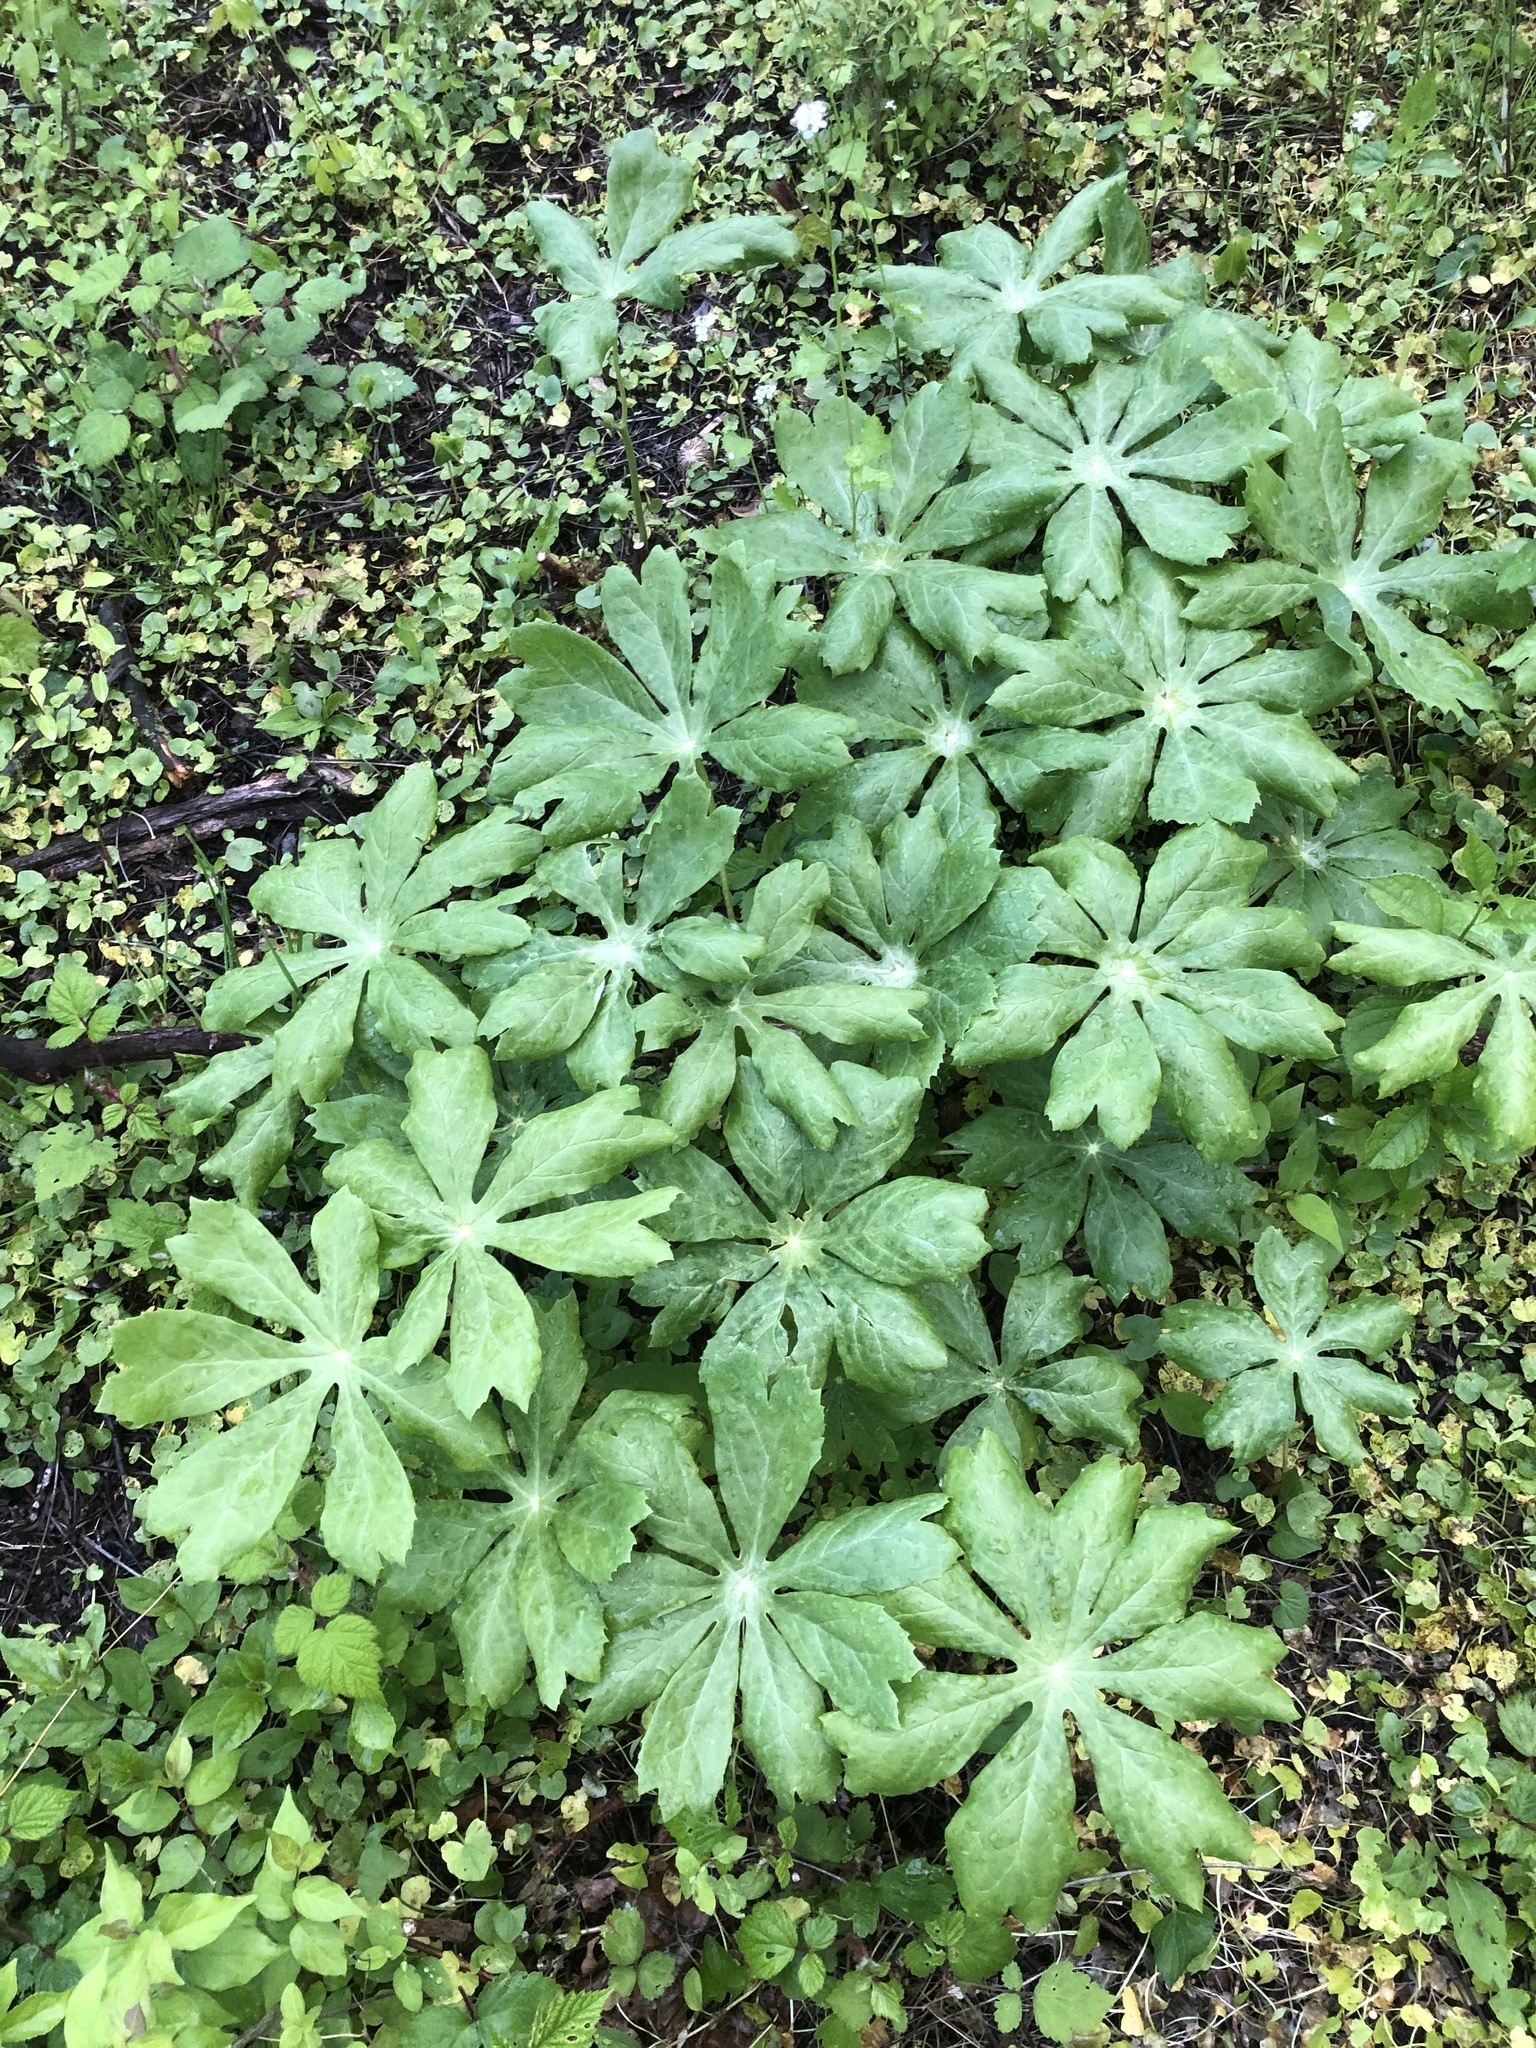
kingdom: Plantae
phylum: Tracheophyta
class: Magnoliopsida
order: Ranunculales
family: Berberidaceae
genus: Podophyllum
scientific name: Podophyllum peltatum
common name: Wild mandrake
